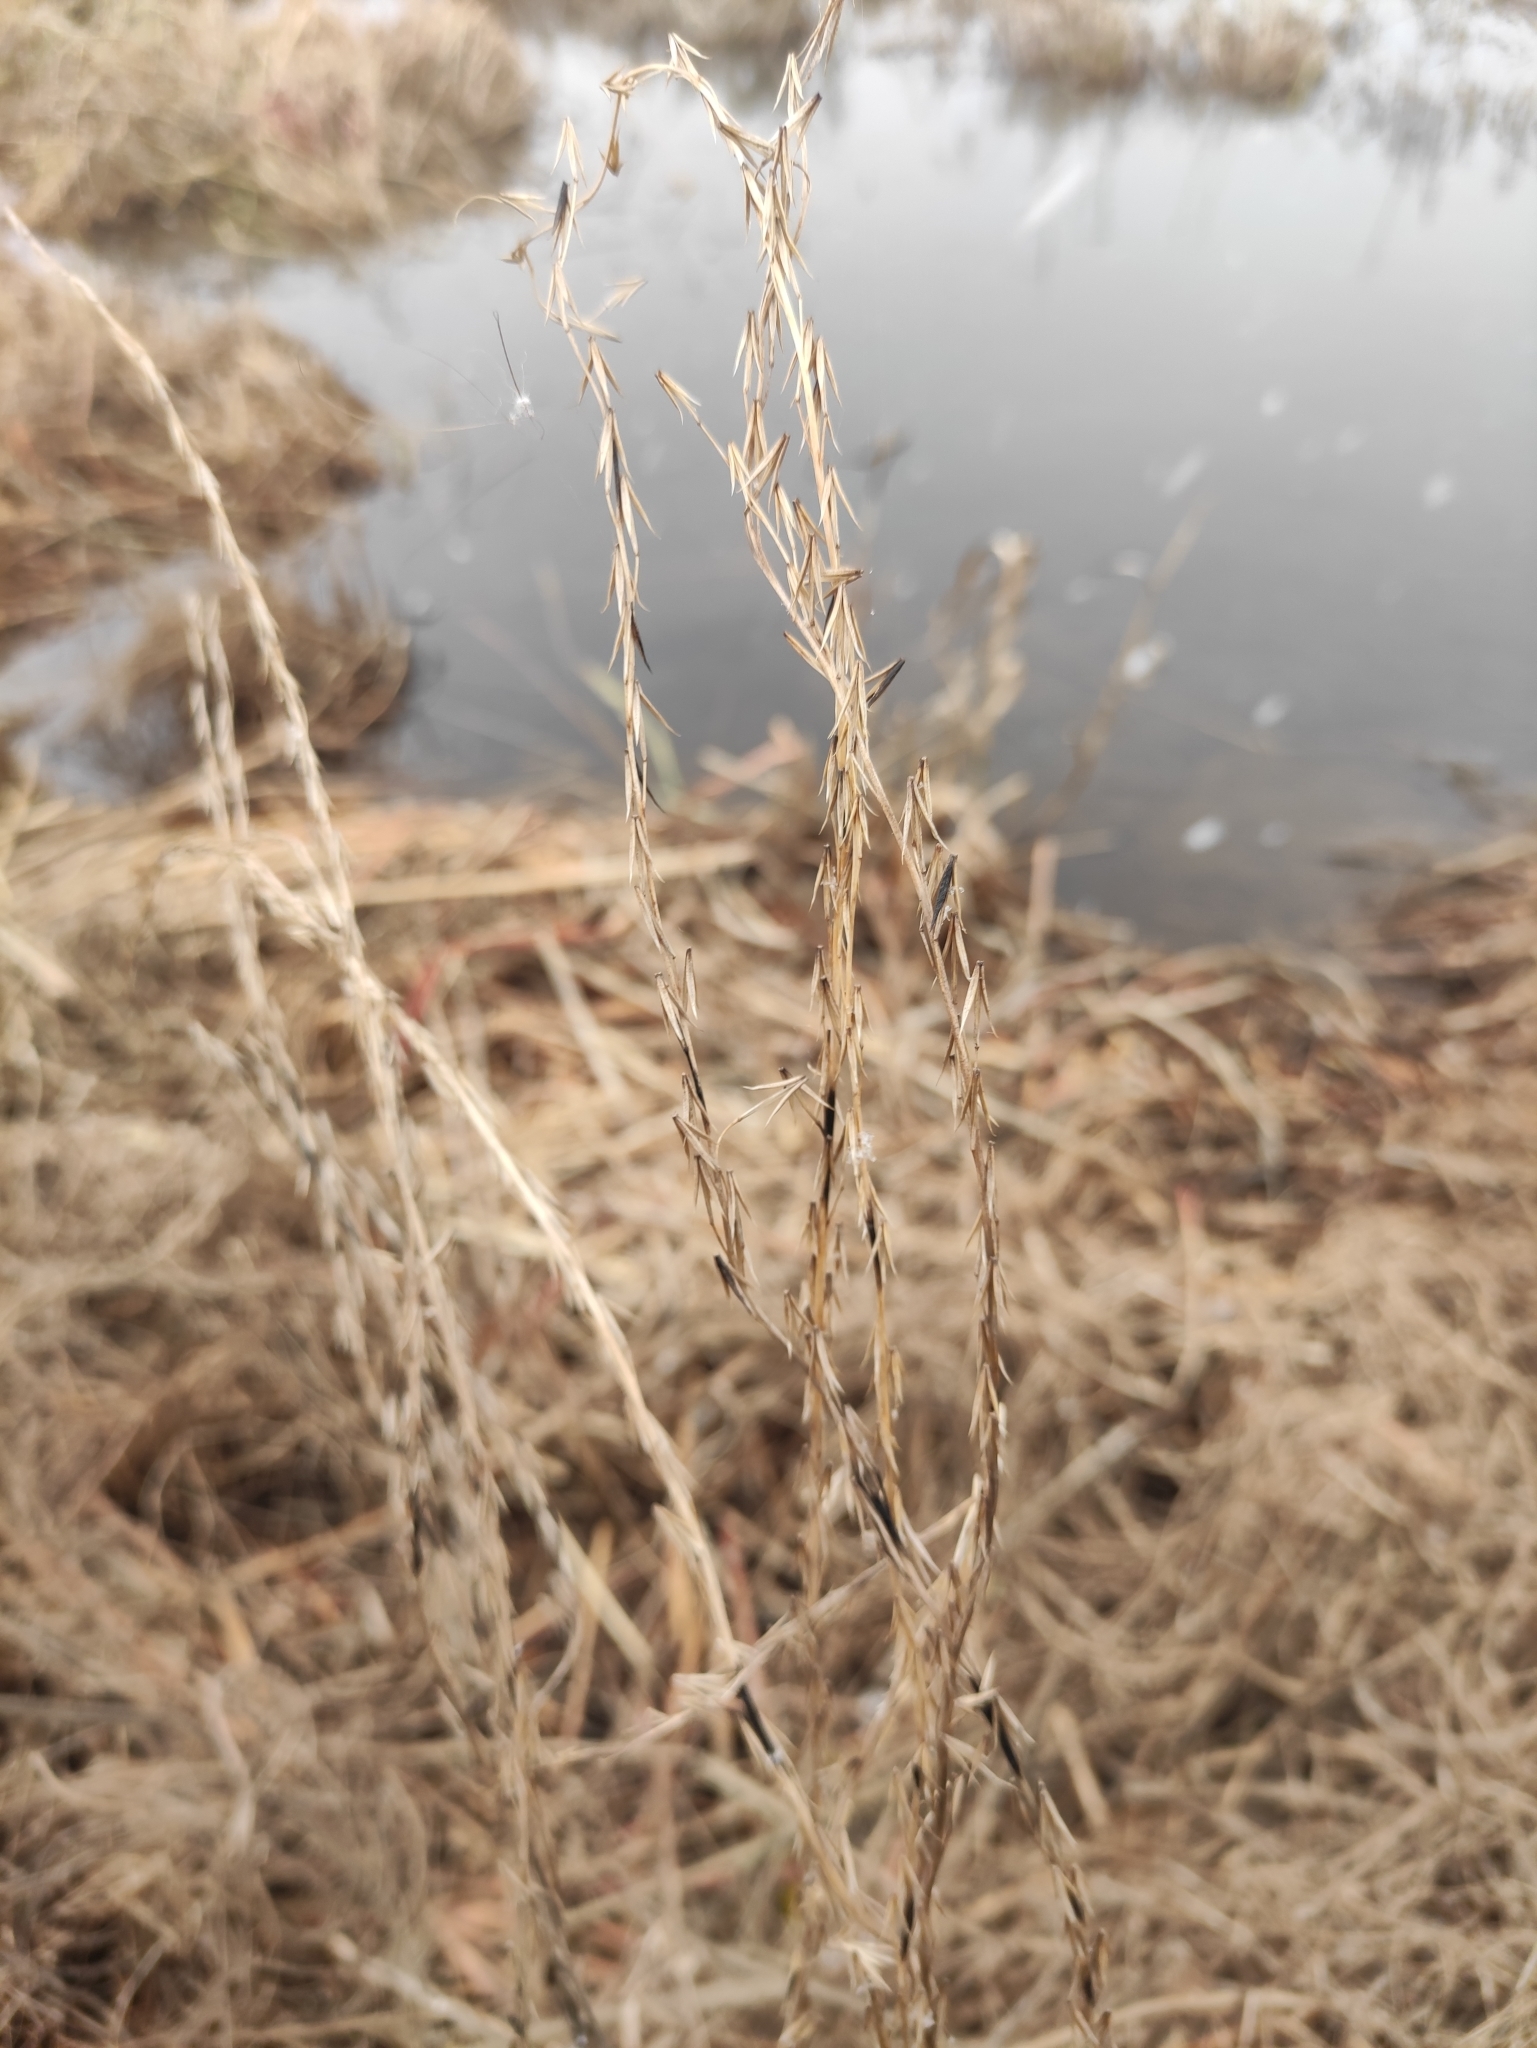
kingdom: Plantae
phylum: Tracheophyta
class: Liliopsida
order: Alismatales
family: Juncaginaceae
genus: Triglochin
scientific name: Triglochin palustris
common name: Marsh arrowgrass
